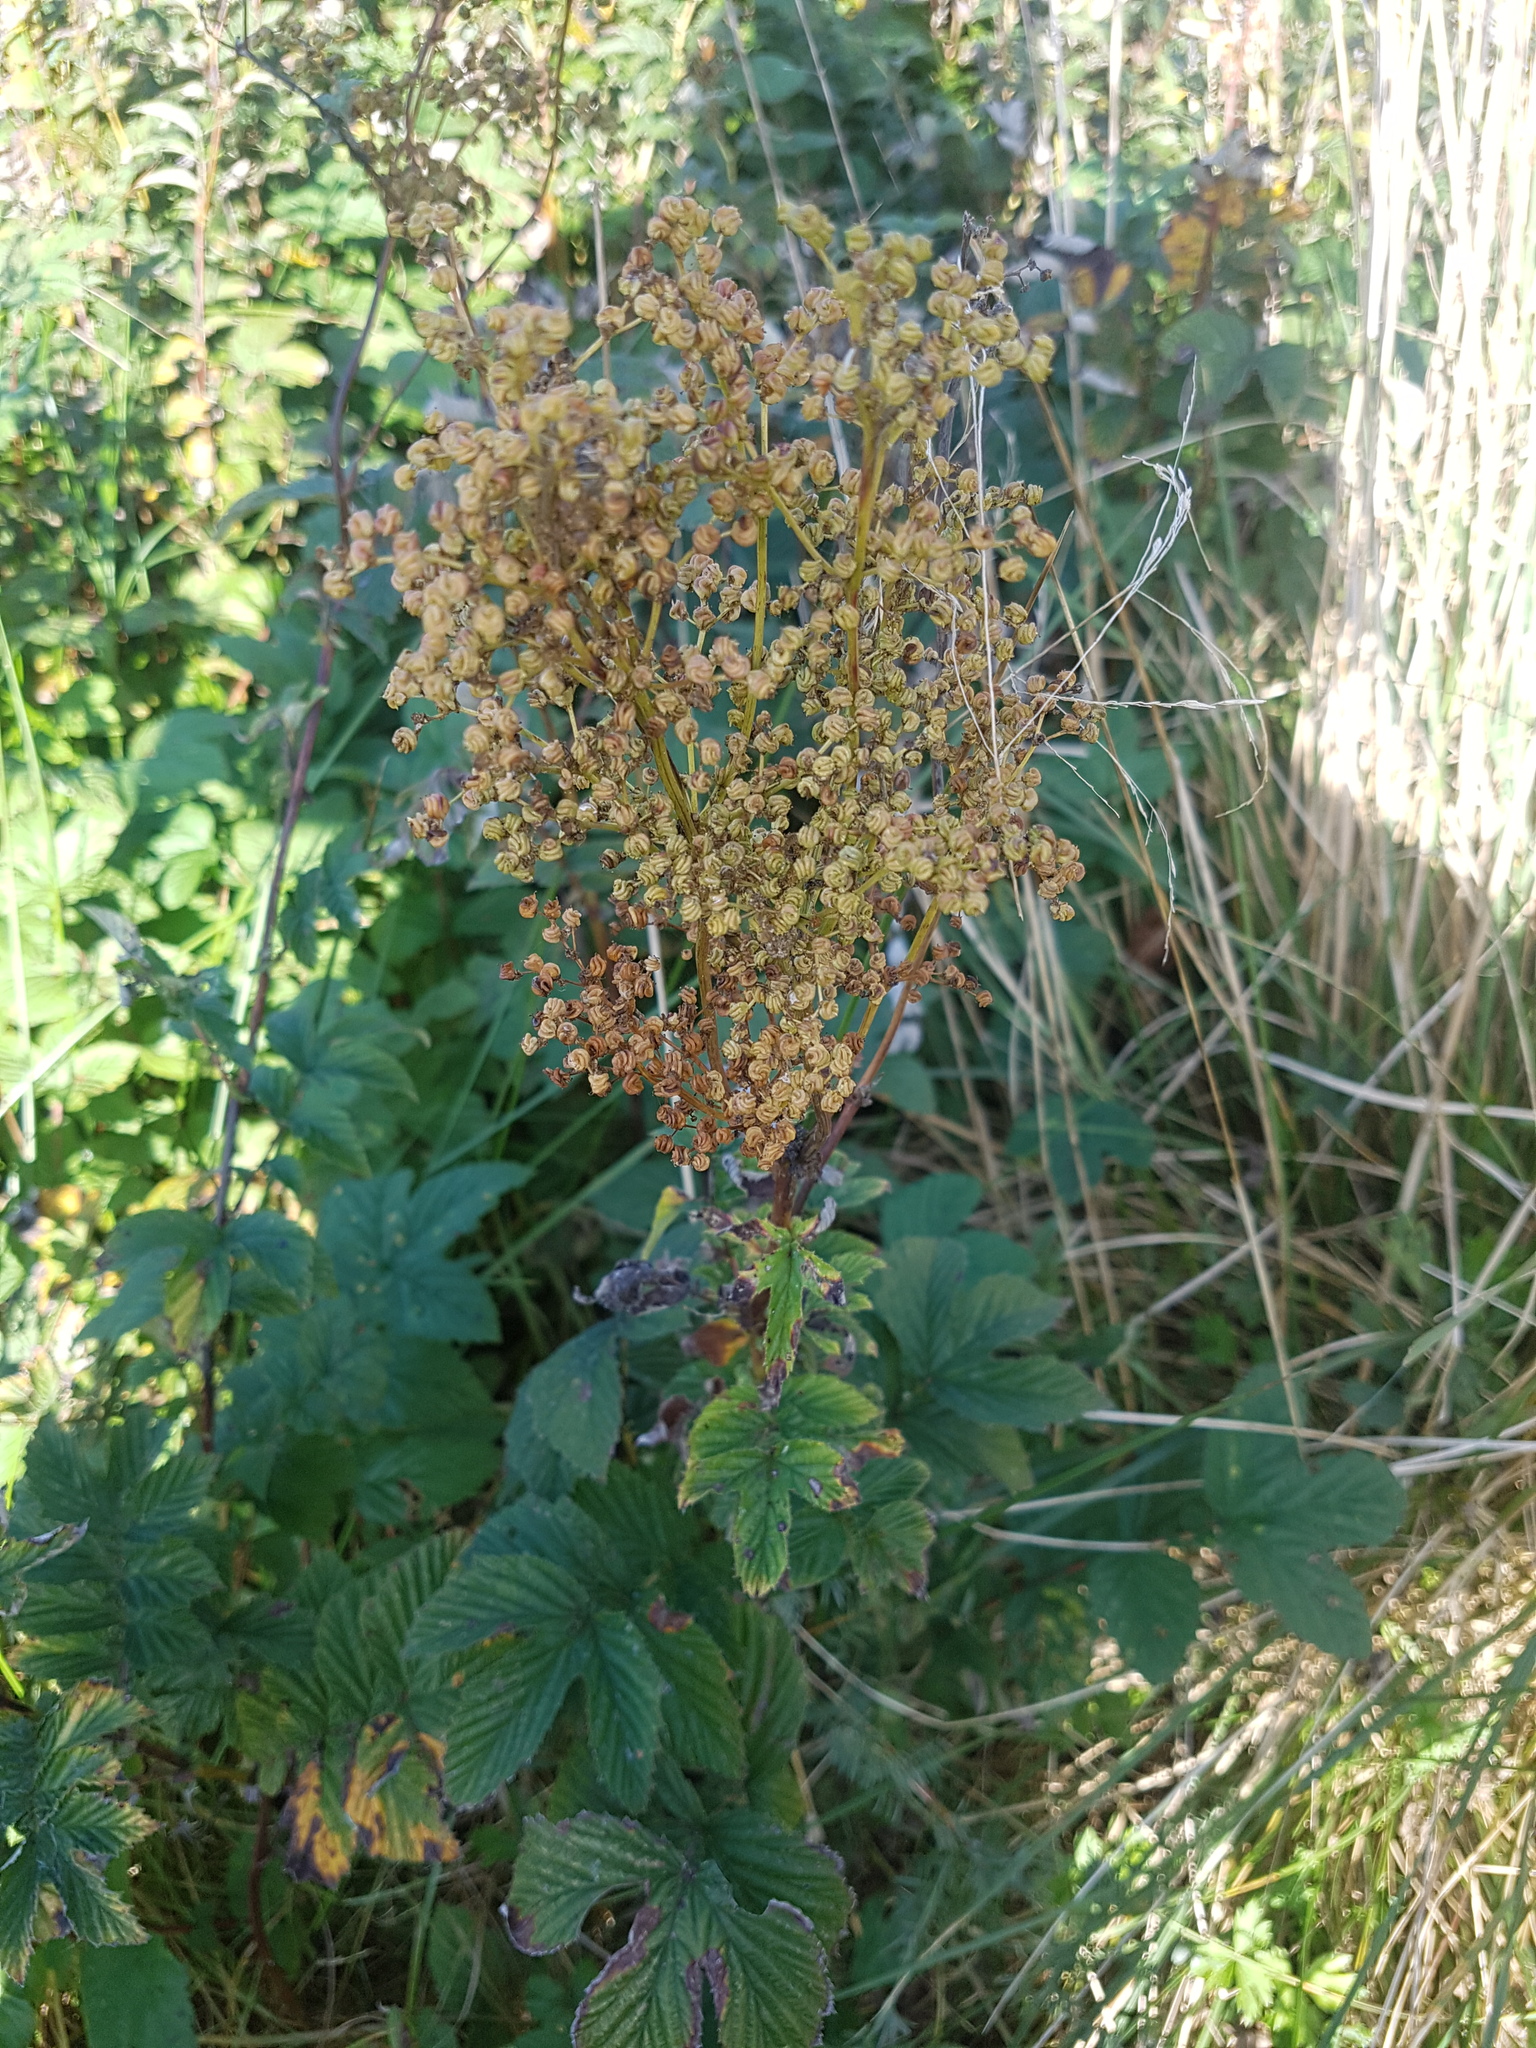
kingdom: Plantae
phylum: Tracheophyta
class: Magnoliopsida
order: Rosales
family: Rosaceae
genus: Filipendula
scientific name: Filipendula ulmaria
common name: Meadowsweet
